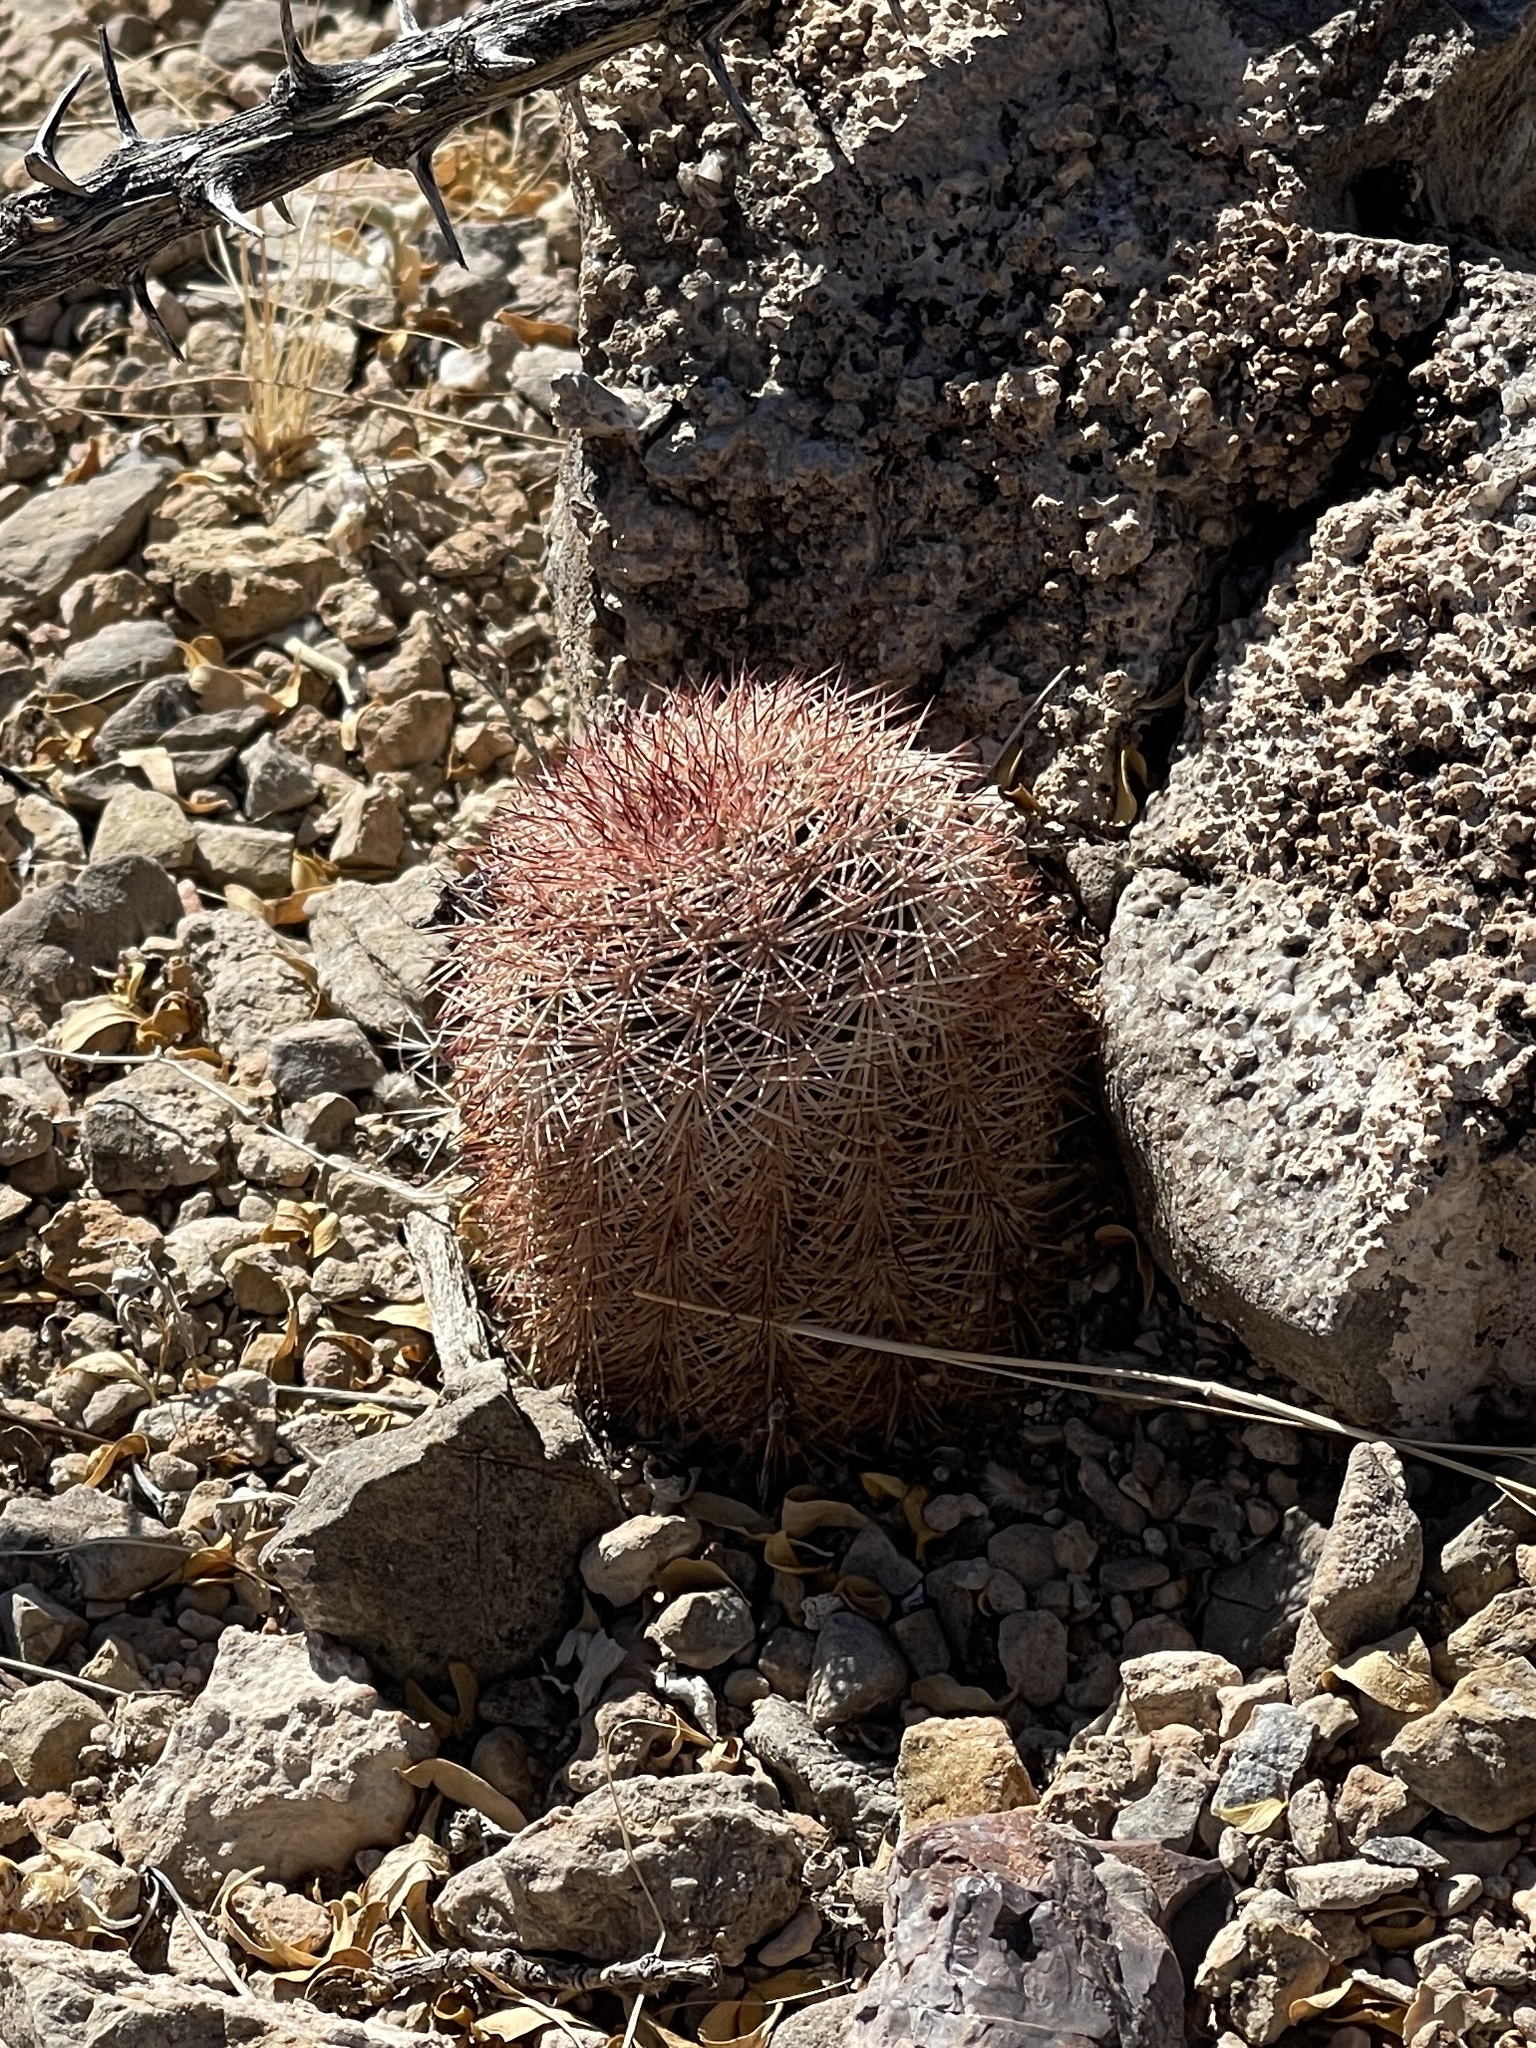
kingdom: Plantae
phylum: Tracheophyta
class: Magnoliopsida
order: Caryophyllales
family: Cactaceae
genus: Echinocereus
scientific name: Echinocereus dasyacanthus
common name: Spiny hedgehog cactus
